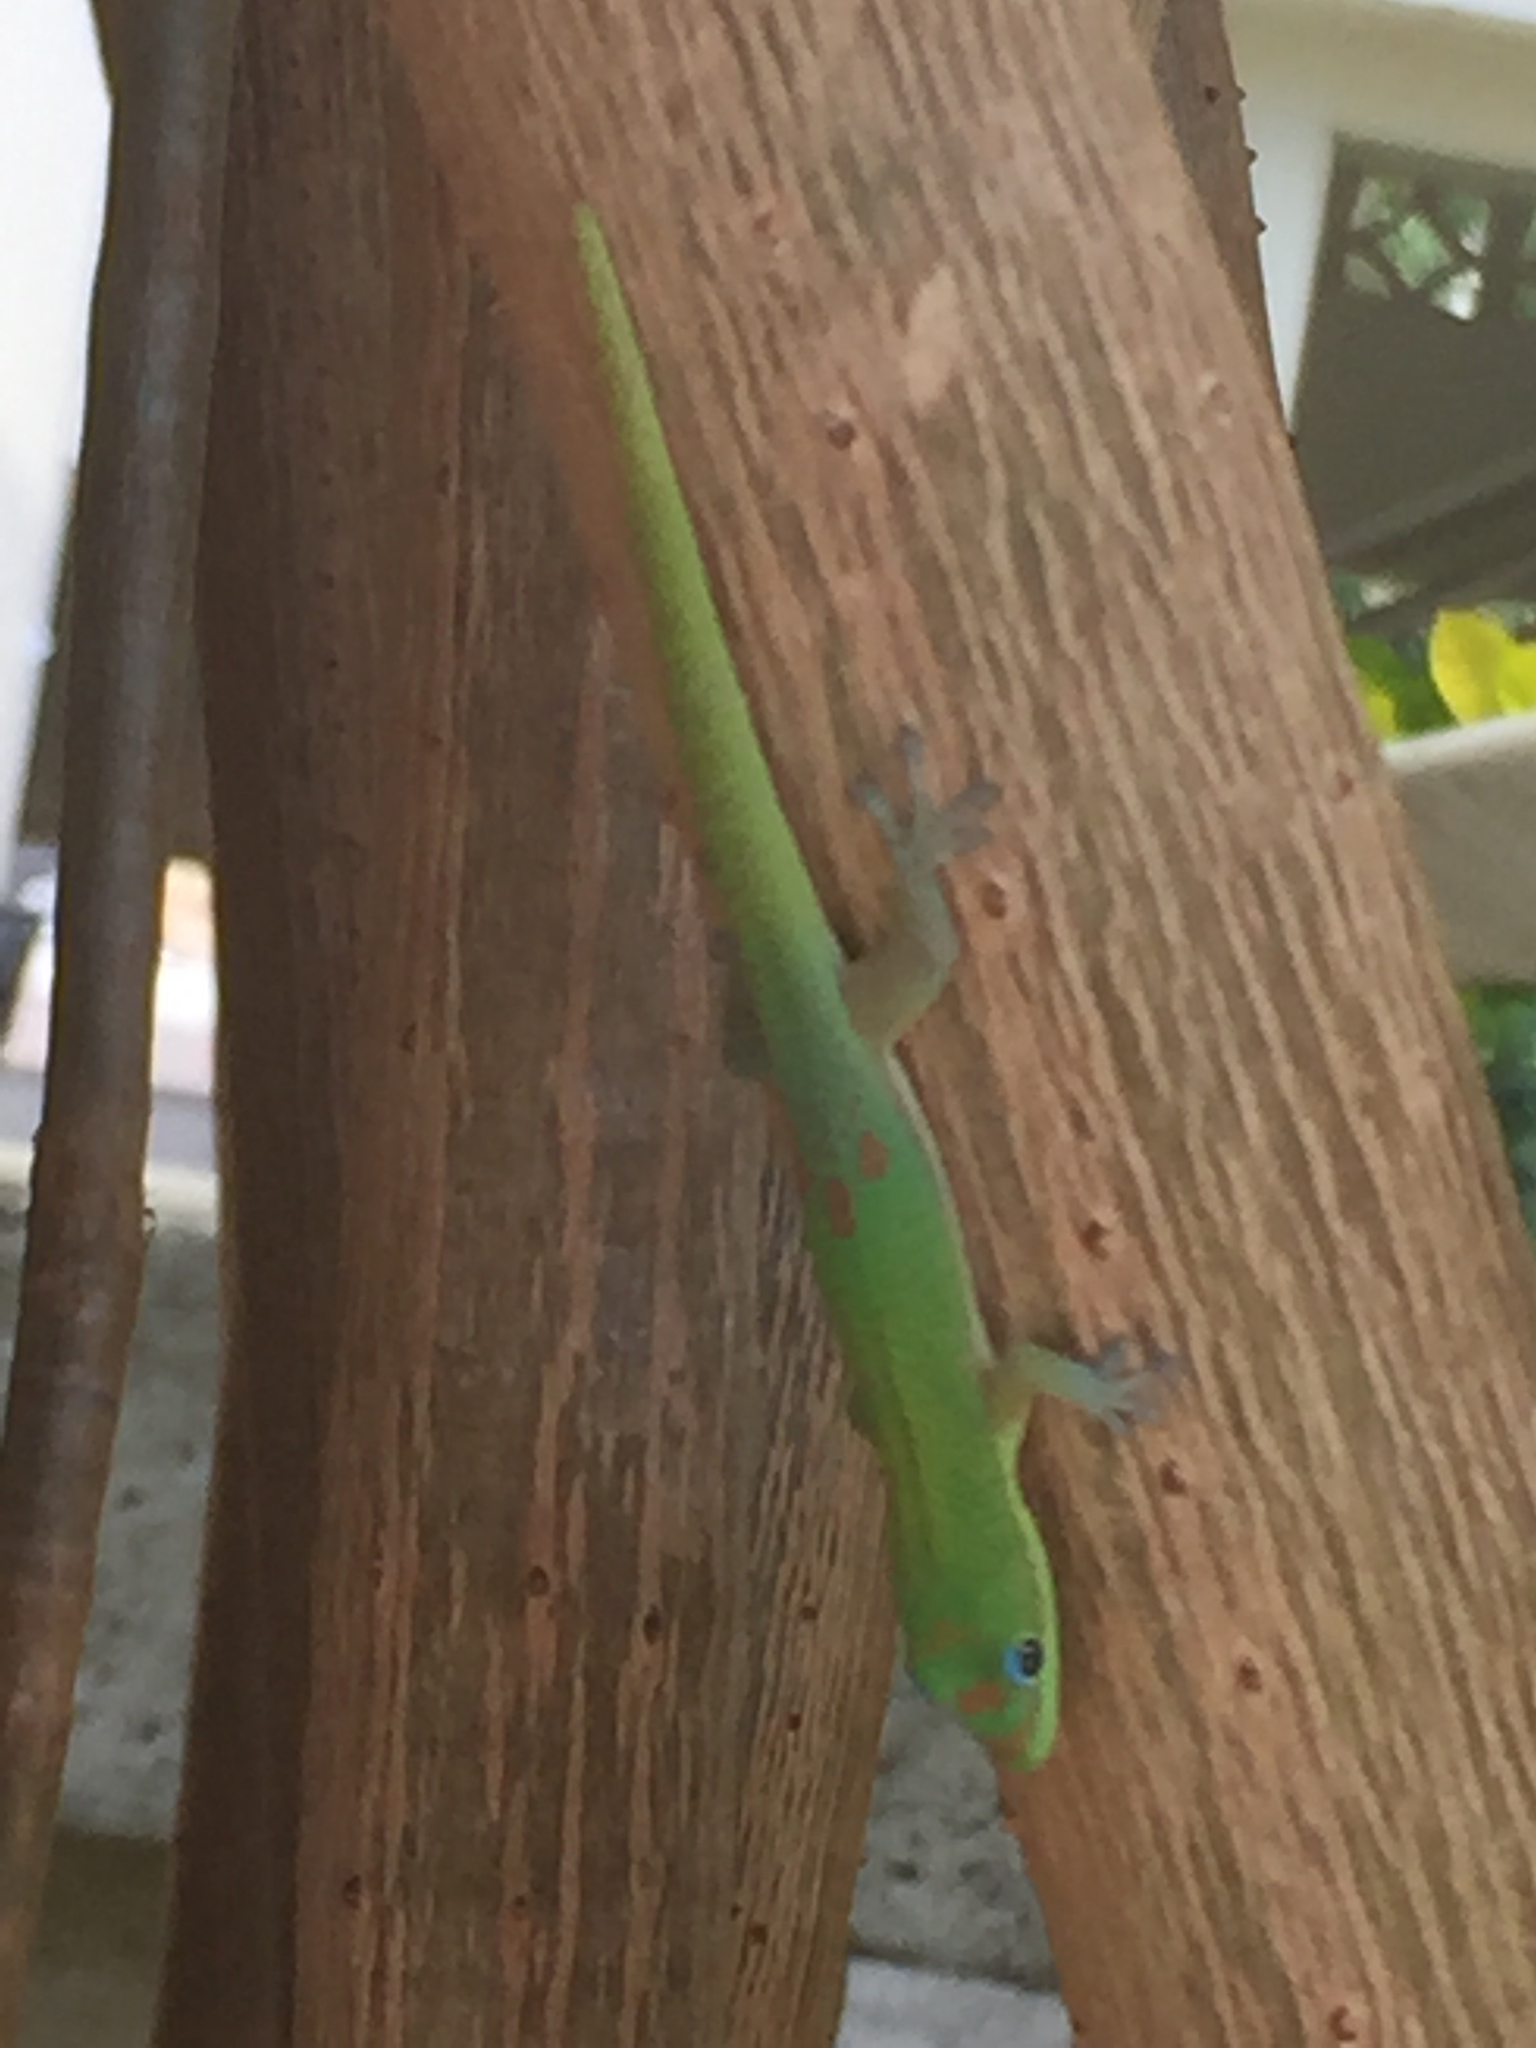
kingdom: Animalia
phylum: Chordata
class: Squamata
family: Gekkonidae
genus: Phelsuma
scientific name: Phelsuma laticauda
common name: Gold dust day gecko
